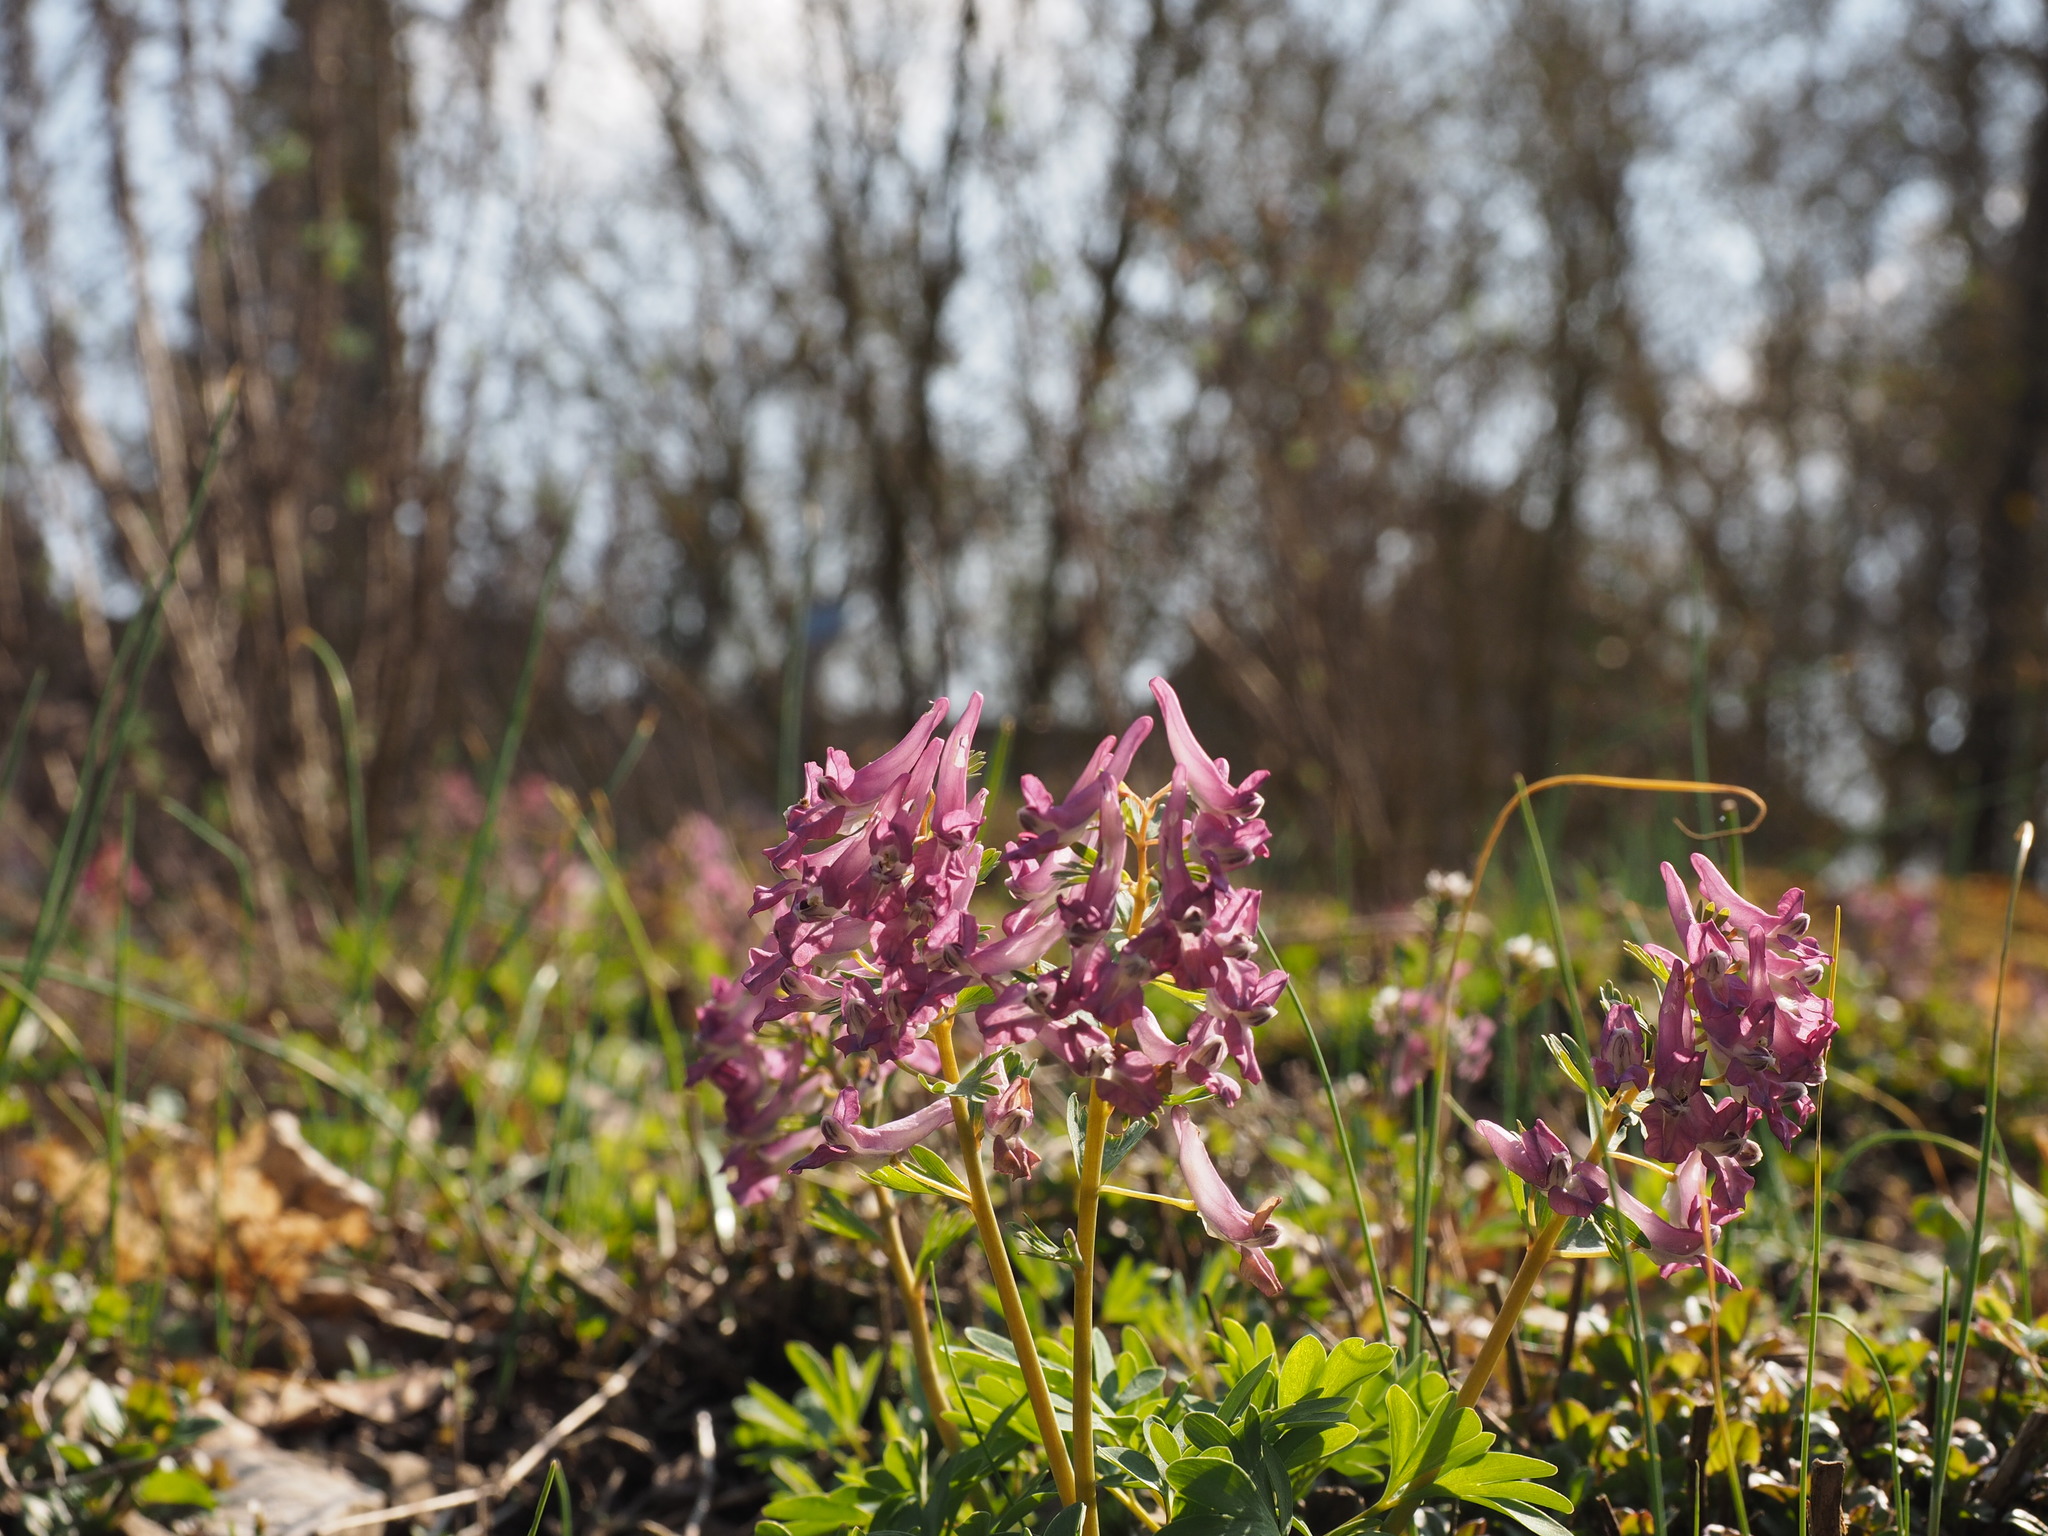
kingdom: Plantae
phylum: Tracheophyta
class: Magnoliopsida
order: Ranunculales
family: Papaveraceae
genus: Corydalis
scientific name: Corydalis cava
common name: Hollowroot
